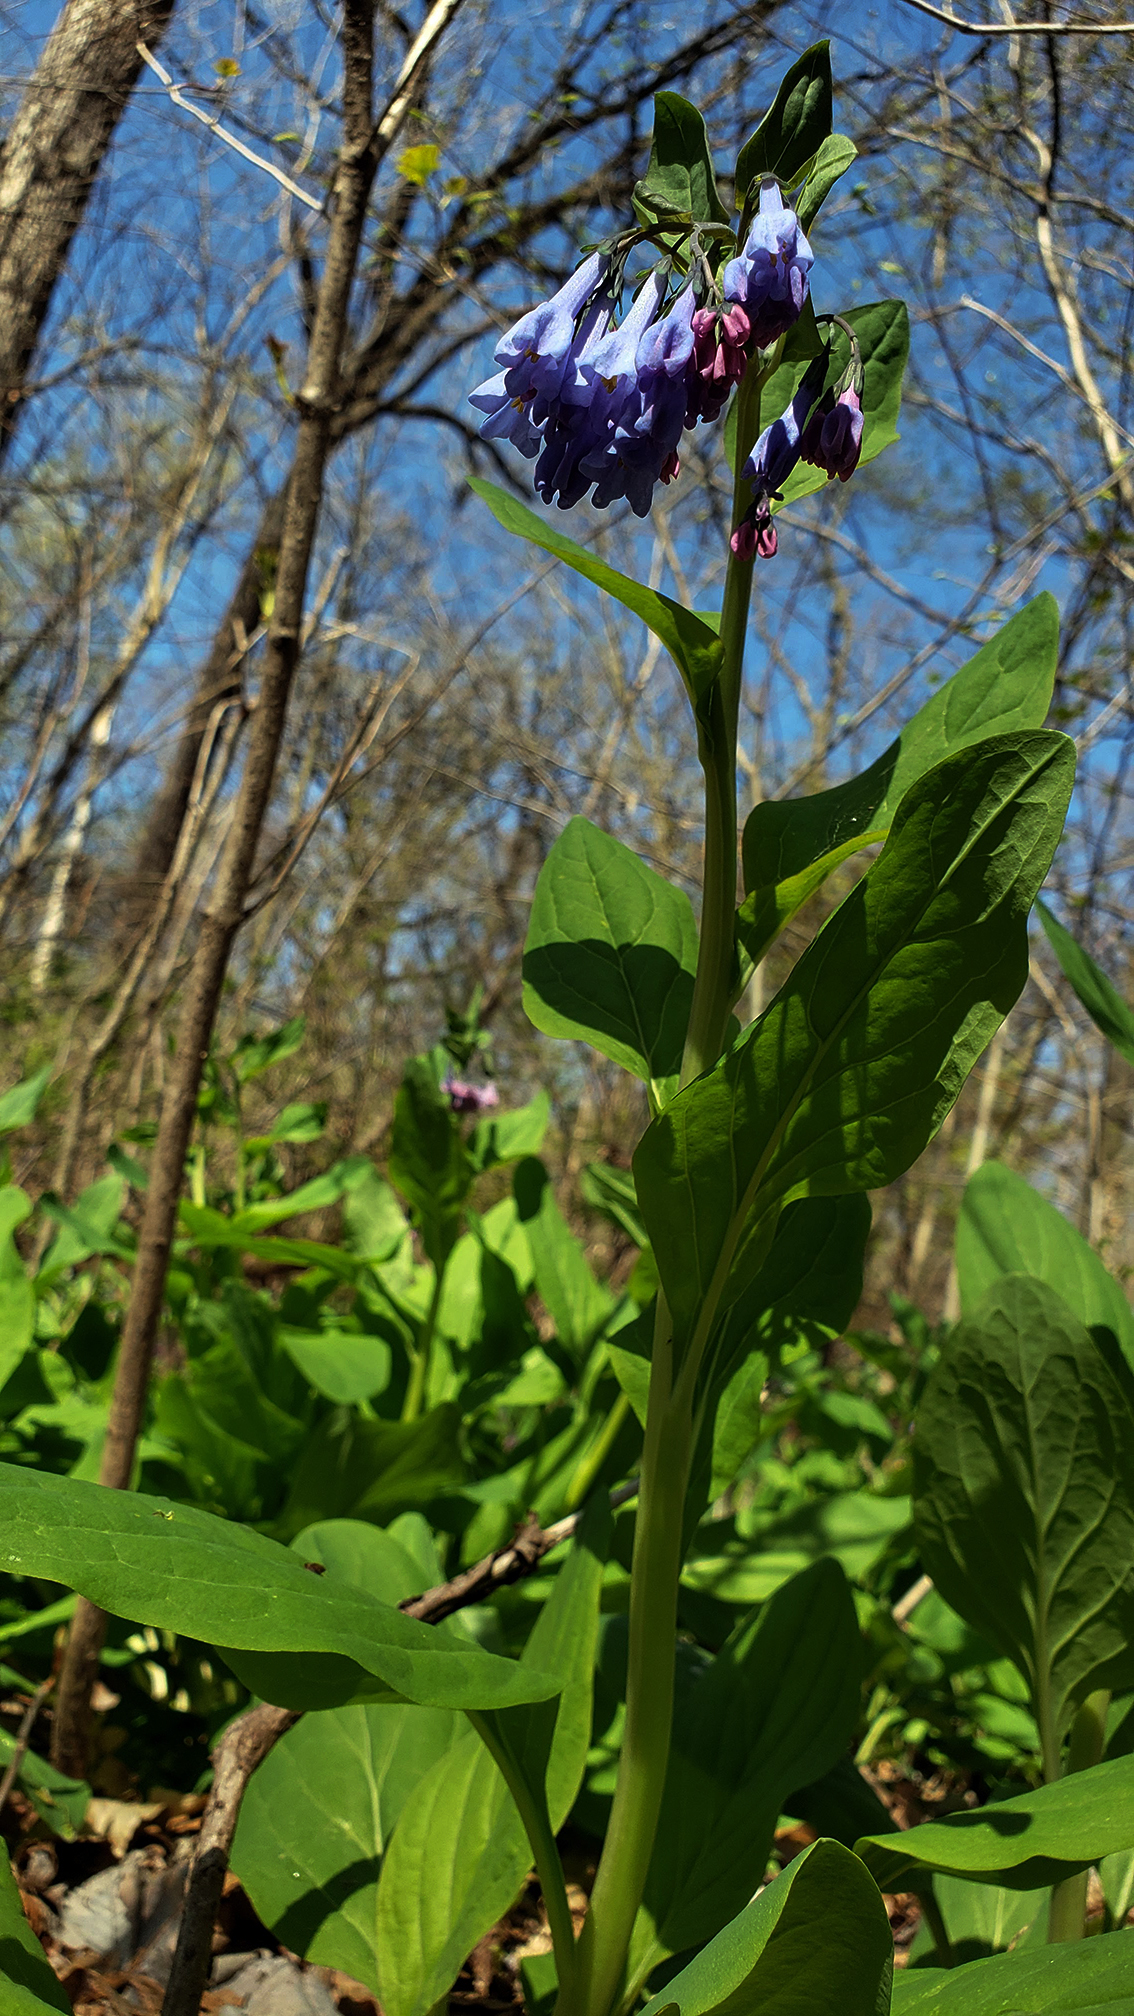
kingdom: Plantae
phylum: Tracheophyta
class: Magnoliopsida
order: Boraginales
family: Boraginaceae
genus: Mertensia
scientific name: Mertensia virginica
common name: Virginia bluebells
